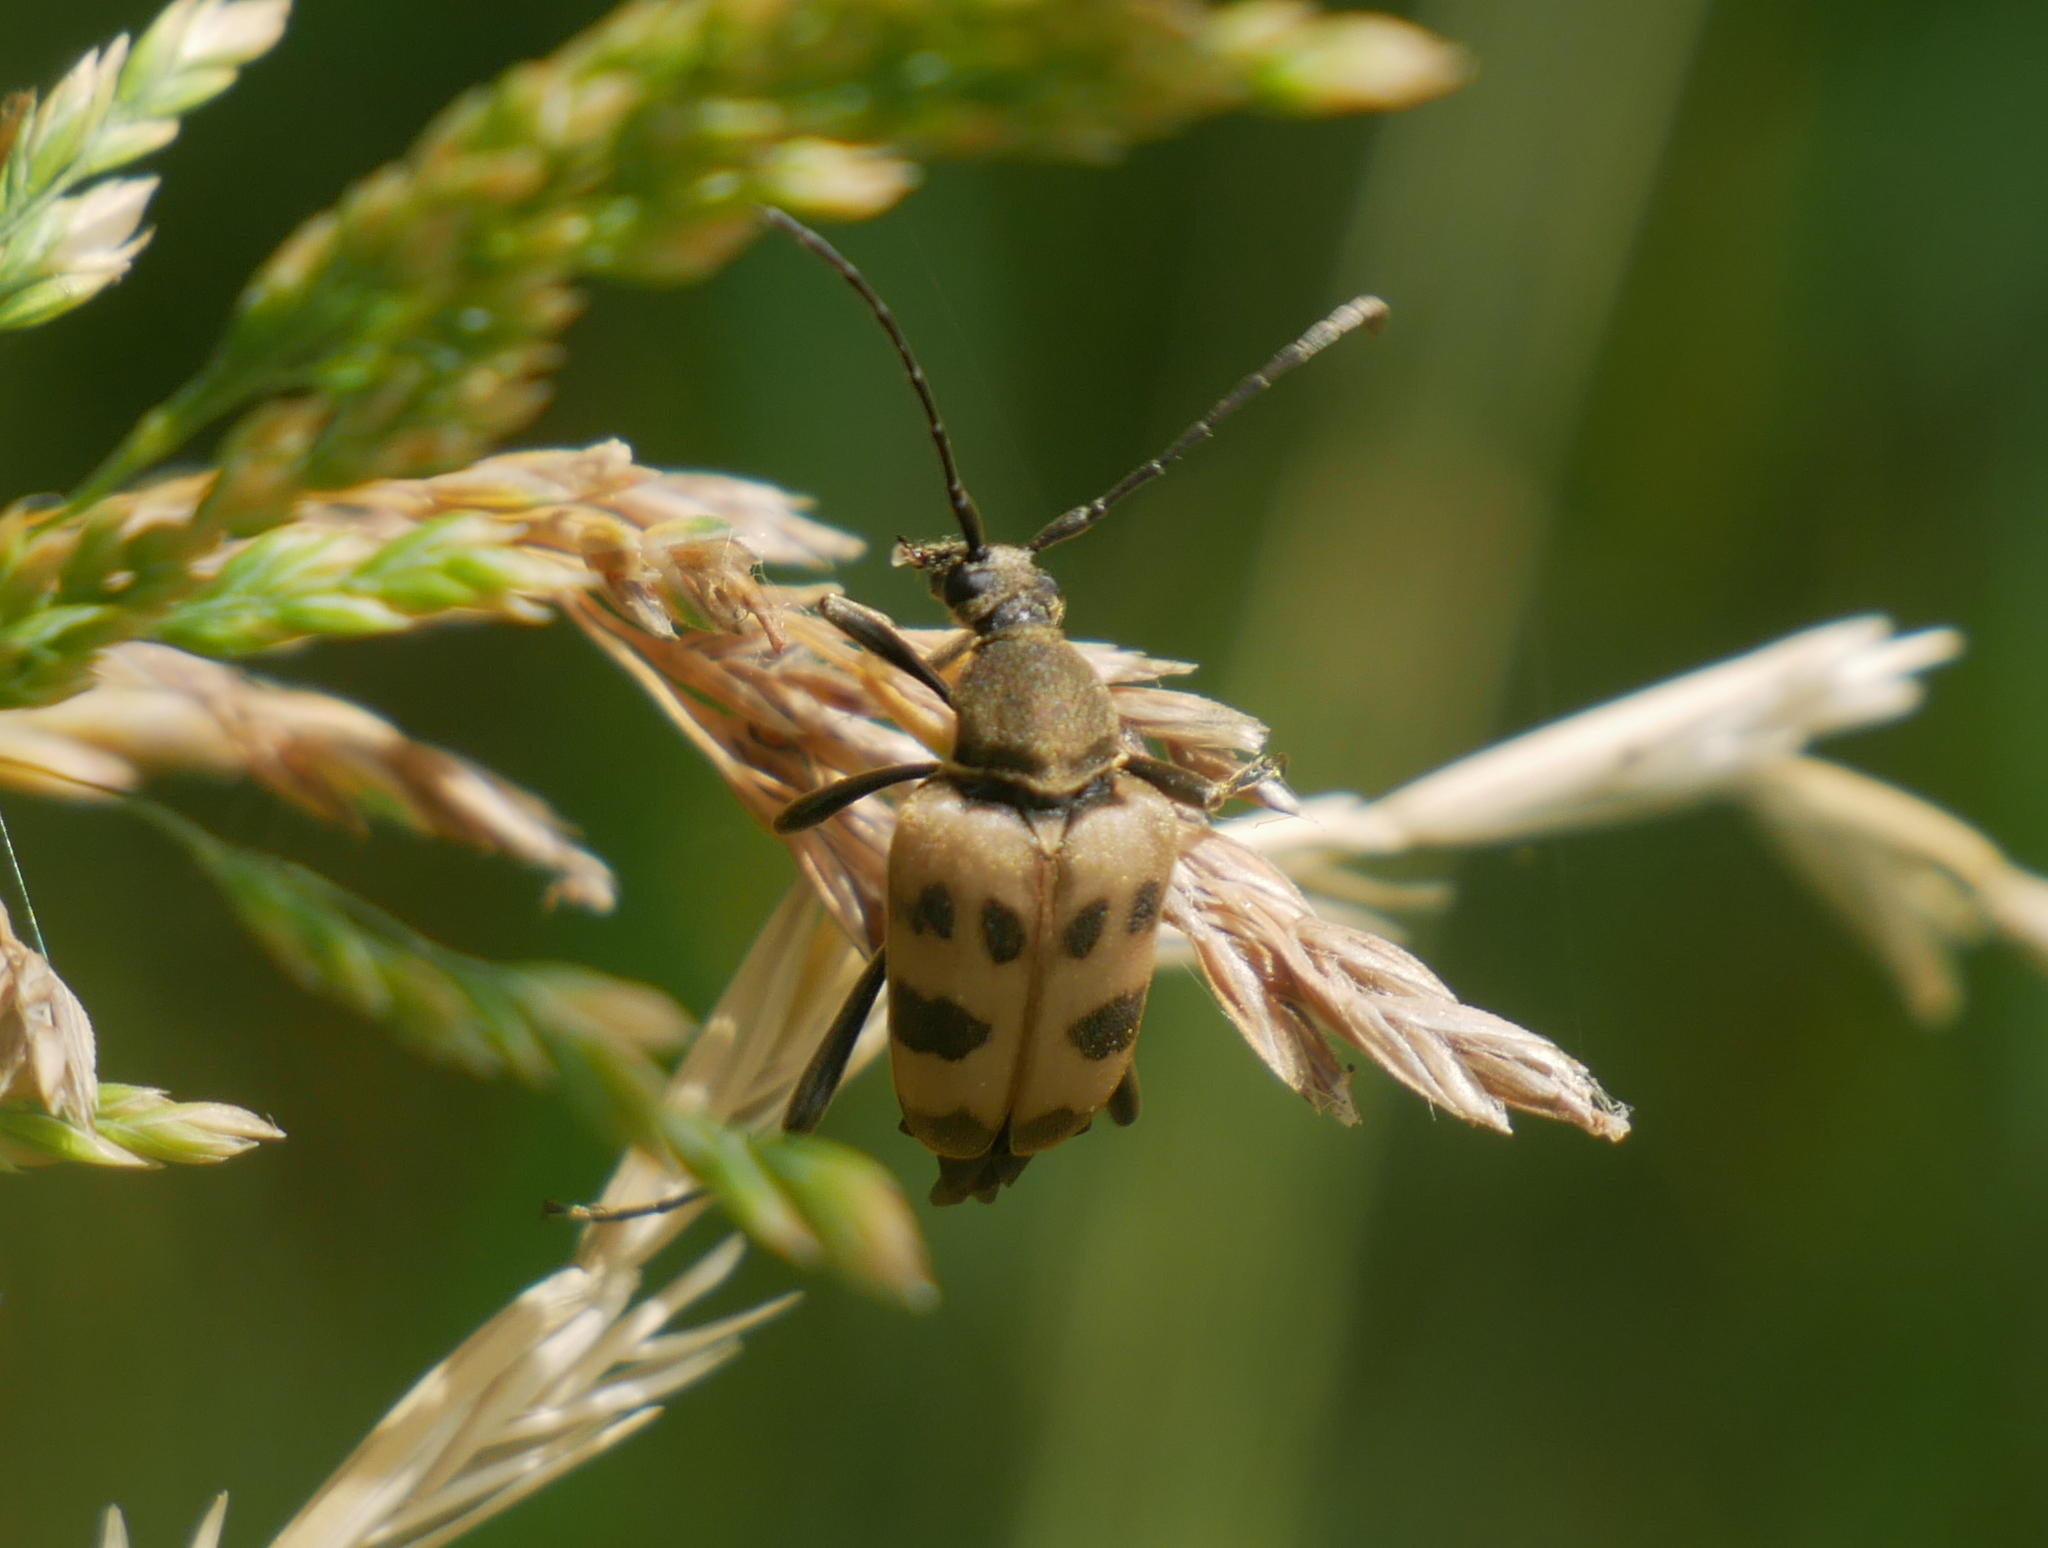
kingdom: Animalia
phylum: Arthropoda
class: Insecta
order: Coleoptera
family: Cerambycidae
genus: Pachytodes
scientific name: Pachytodes cerambyciformis
